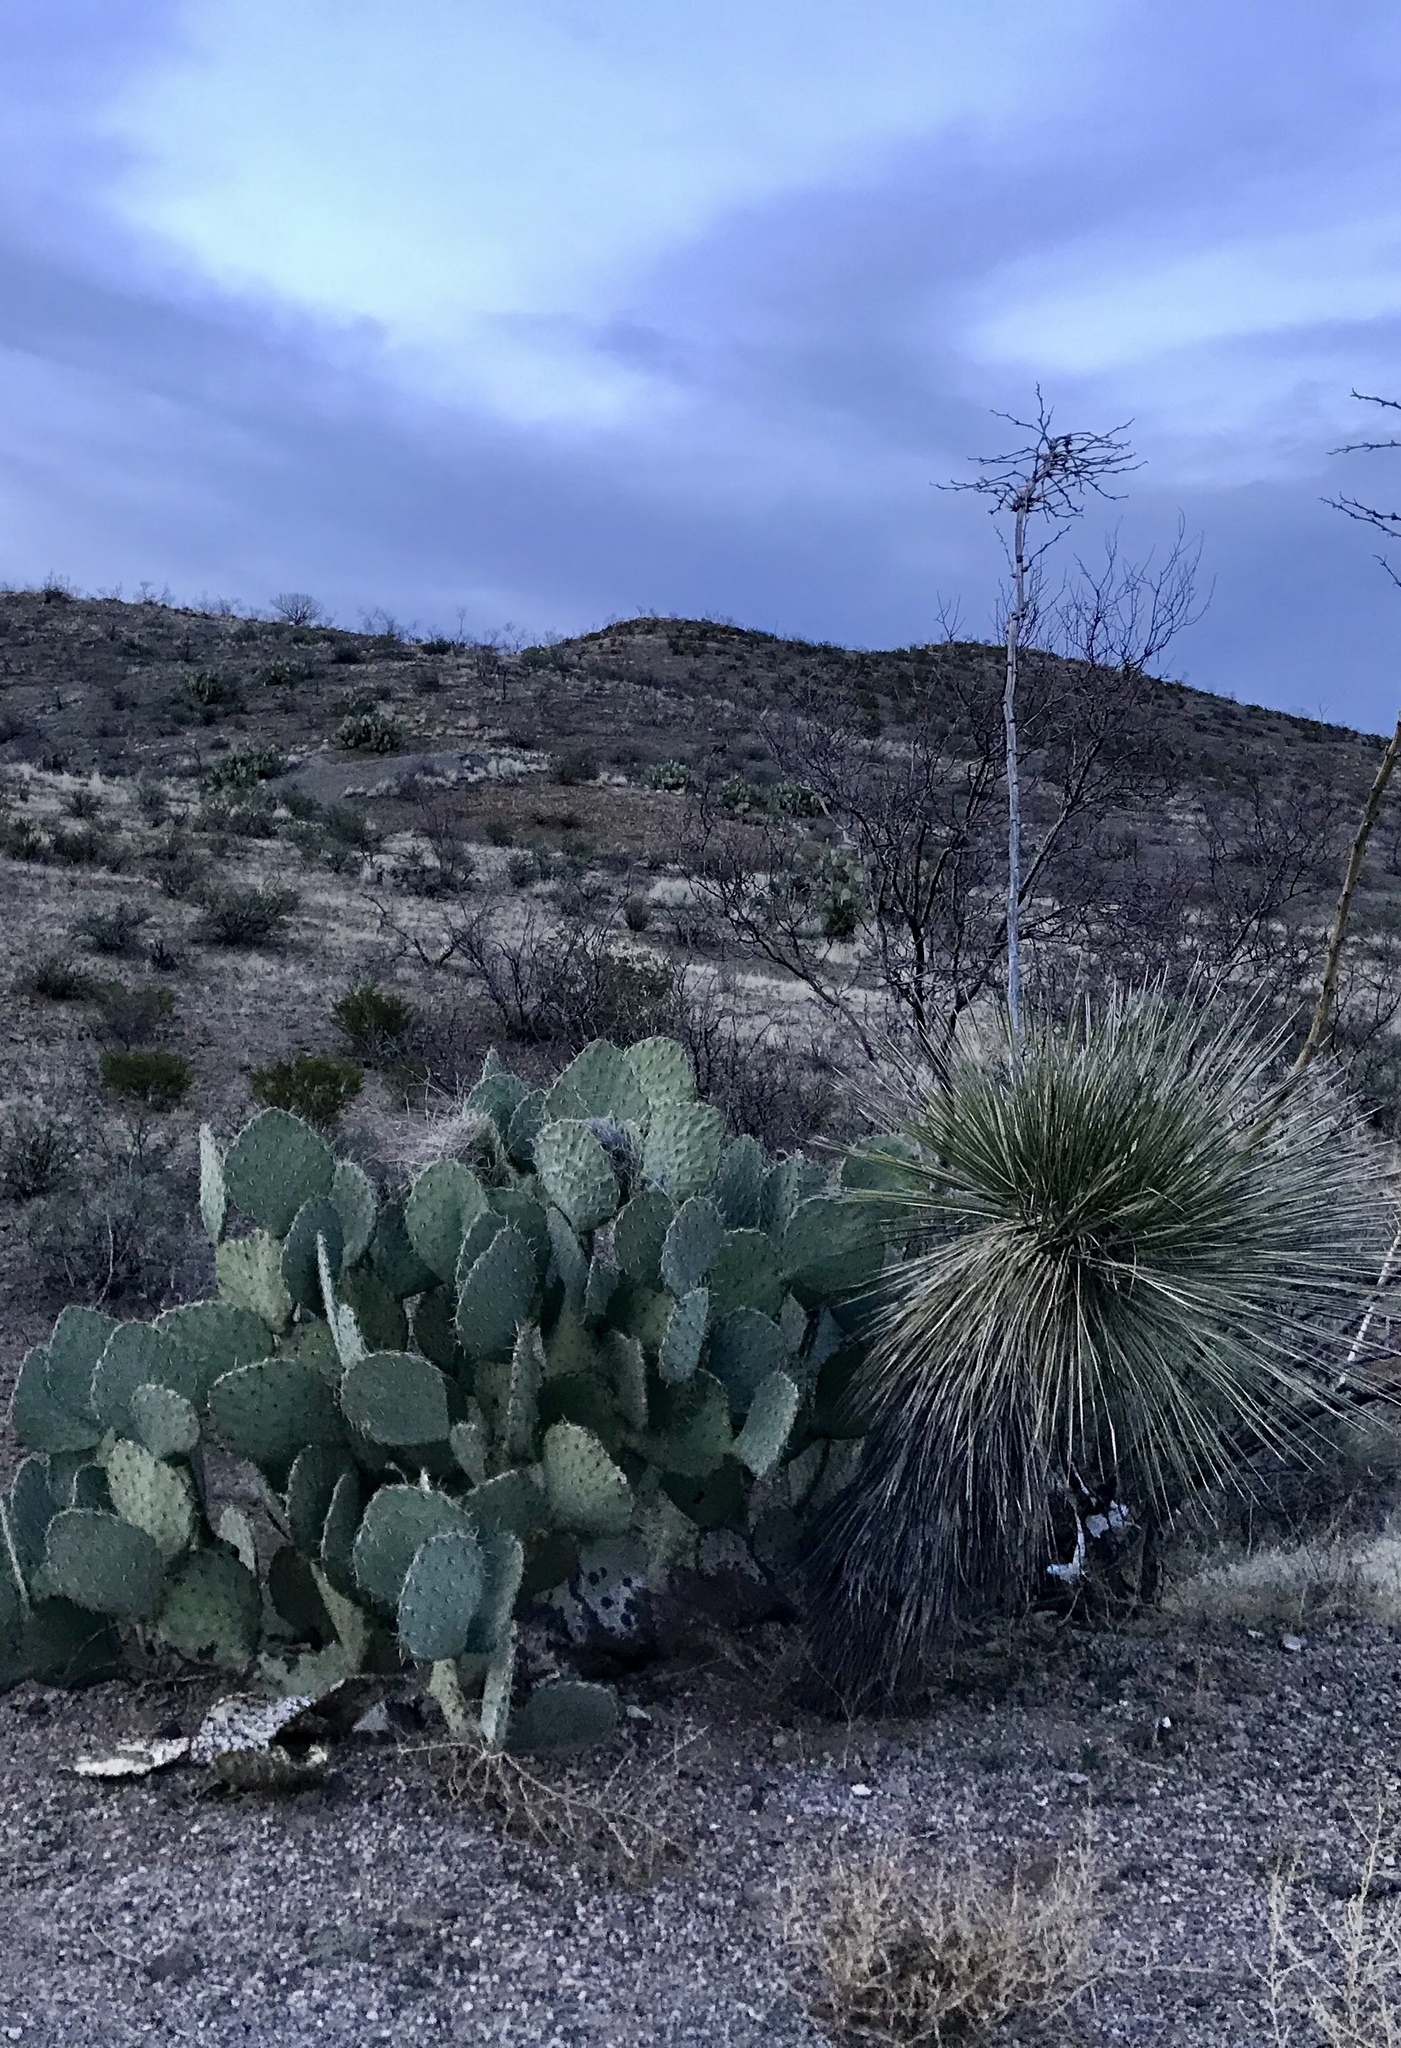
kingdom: Plantae
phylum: Tracheophyta
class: Liliopsida
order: Asparagales
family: Asparagaceae
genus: Yucca
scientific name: Yucca elata
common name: Palmella
